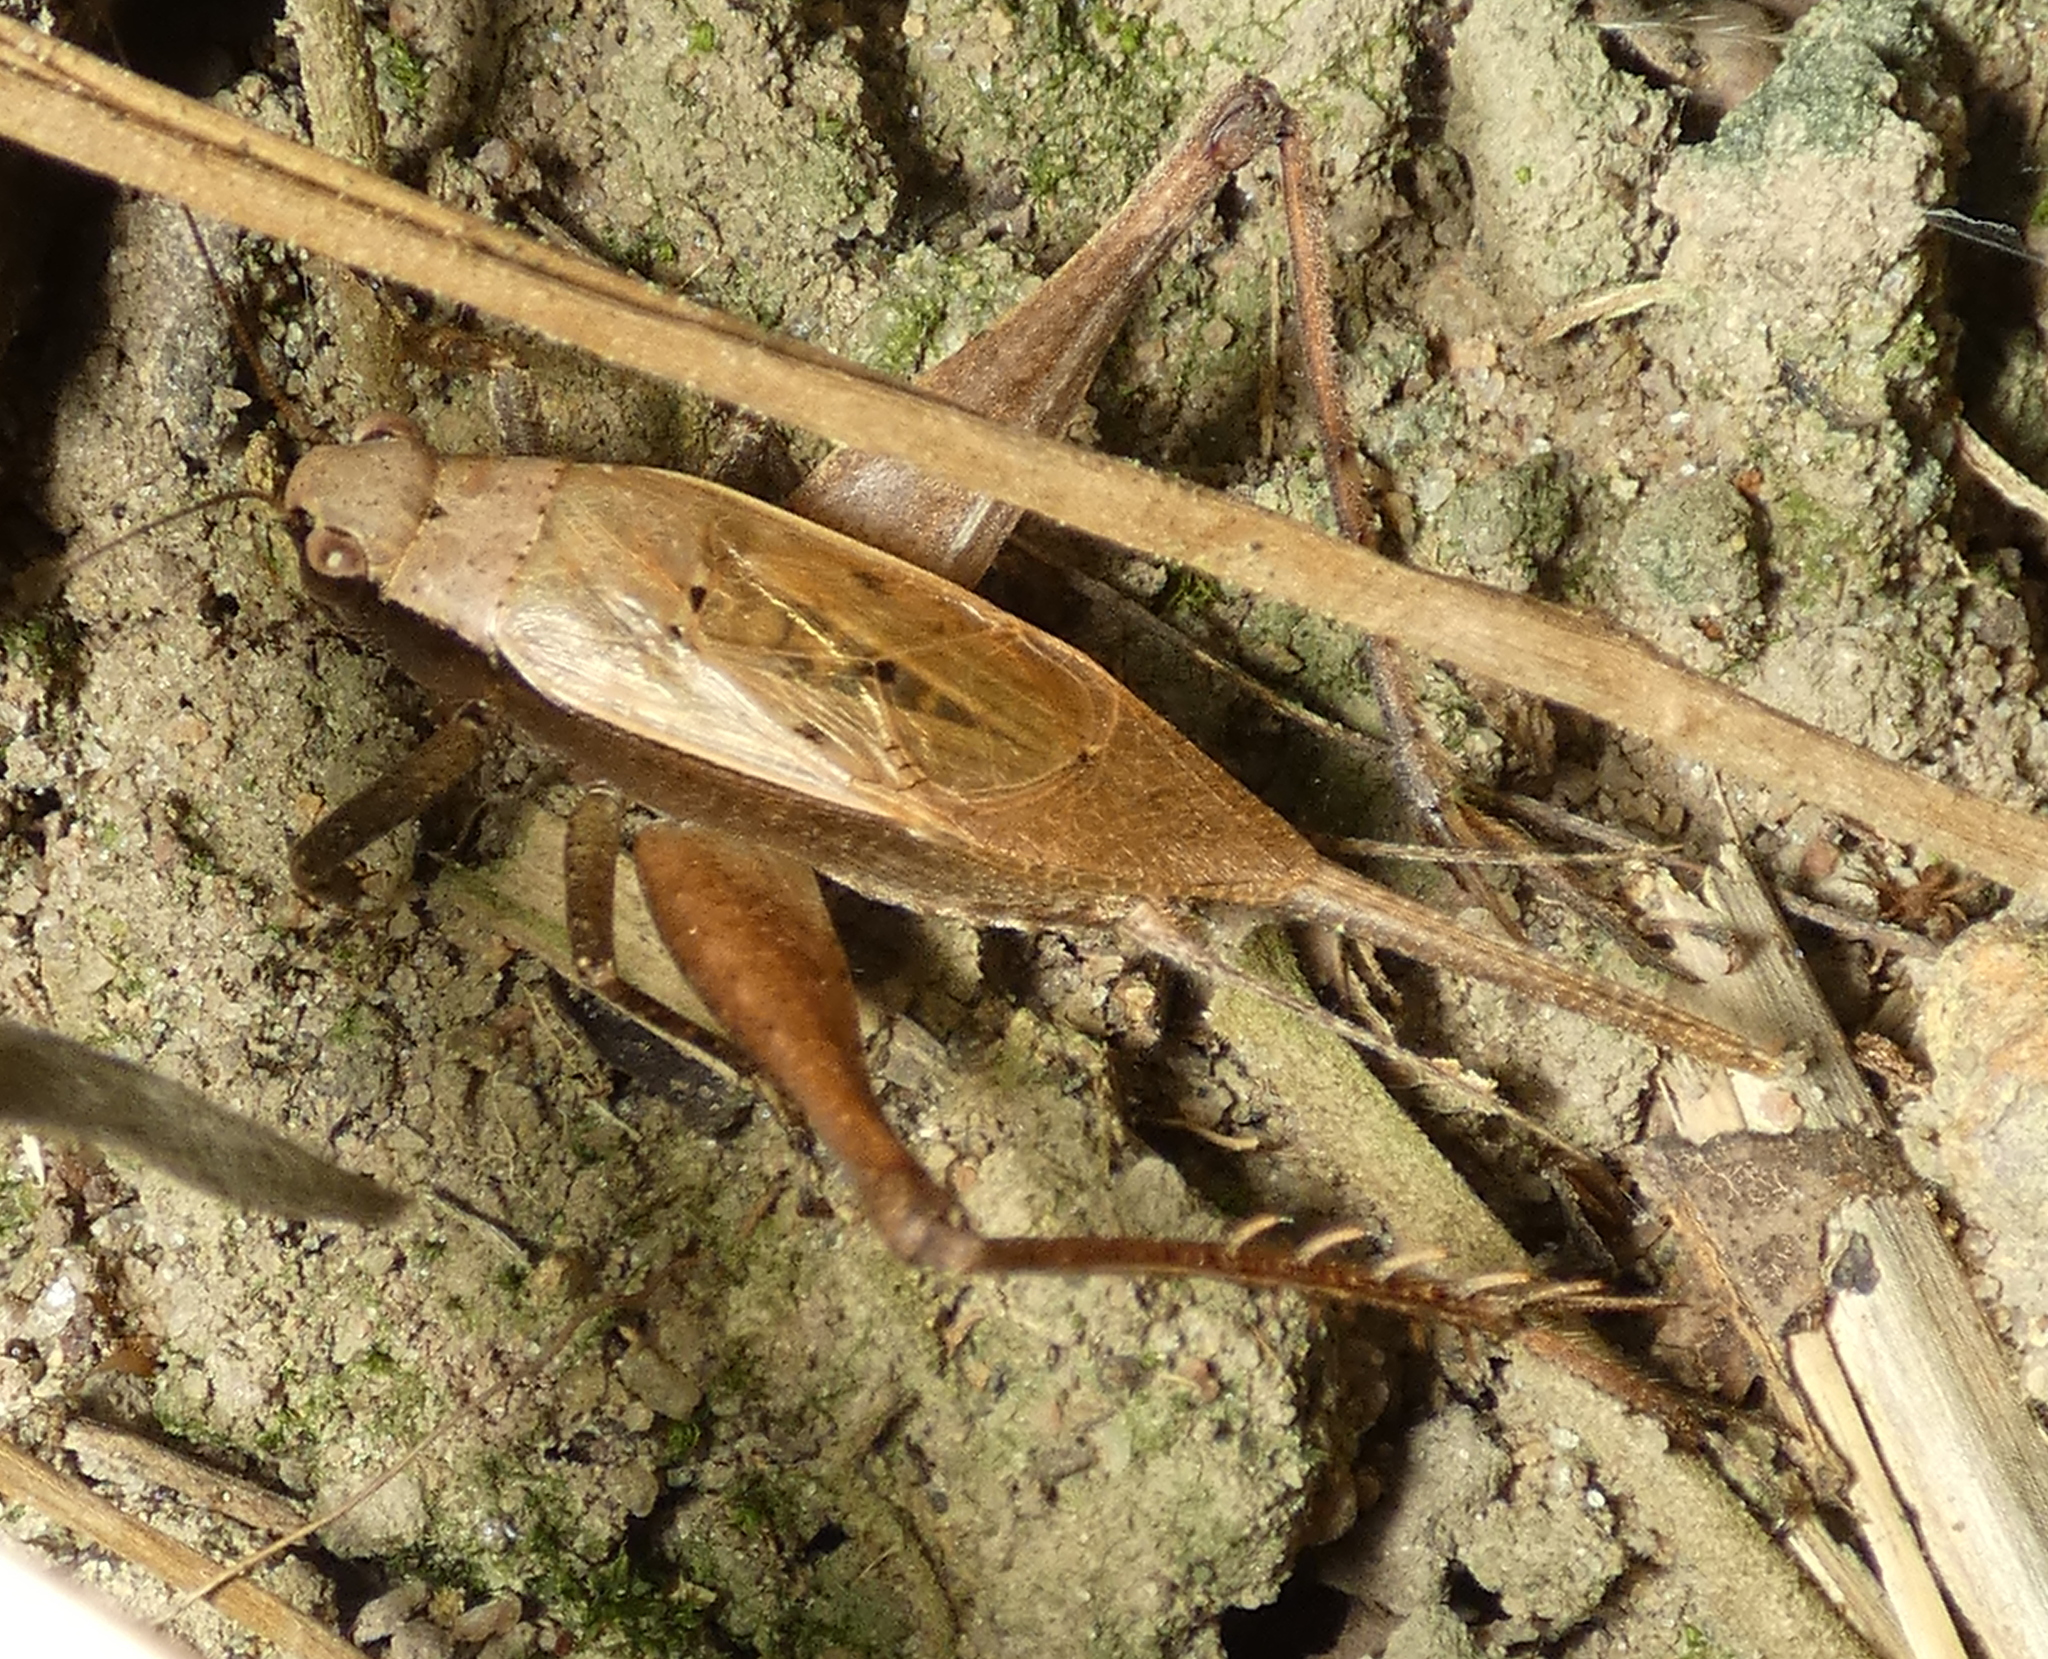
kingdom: Animalia
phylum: Arthropoda
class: Insecta
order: Orthoptera
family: Gryllidae
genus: Eneoptera
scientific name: Eneoptera surinamensis
